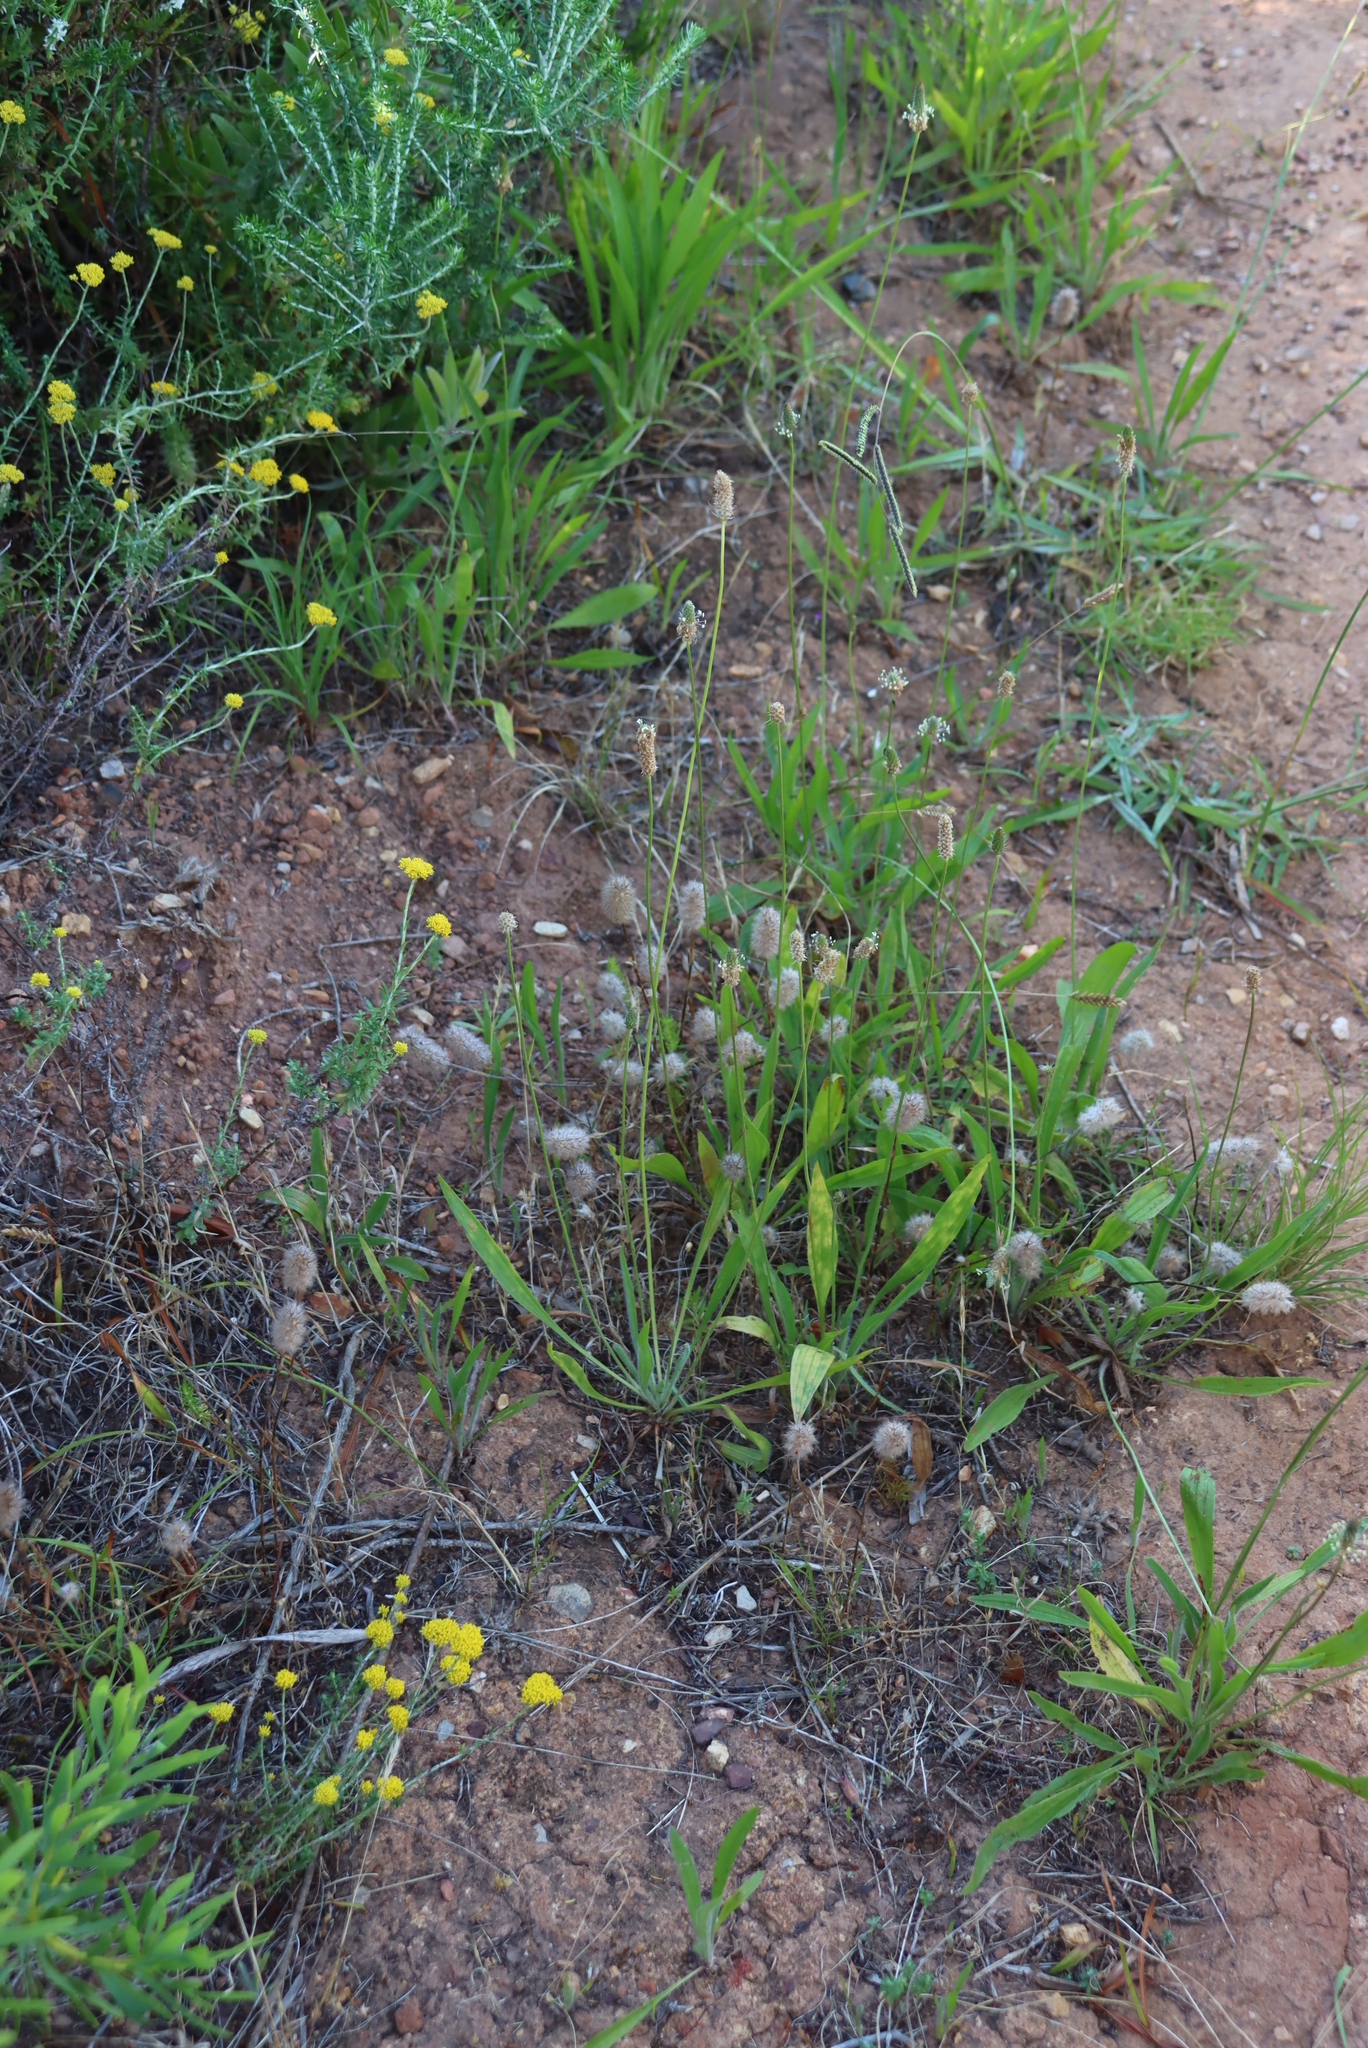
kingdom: Plantae
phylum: Tracheophyta
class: Magnoliopsida
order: Fabales
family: Fabaceae
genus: Trifolium
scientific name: Trifolium angustifolium
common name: Narrow clover
